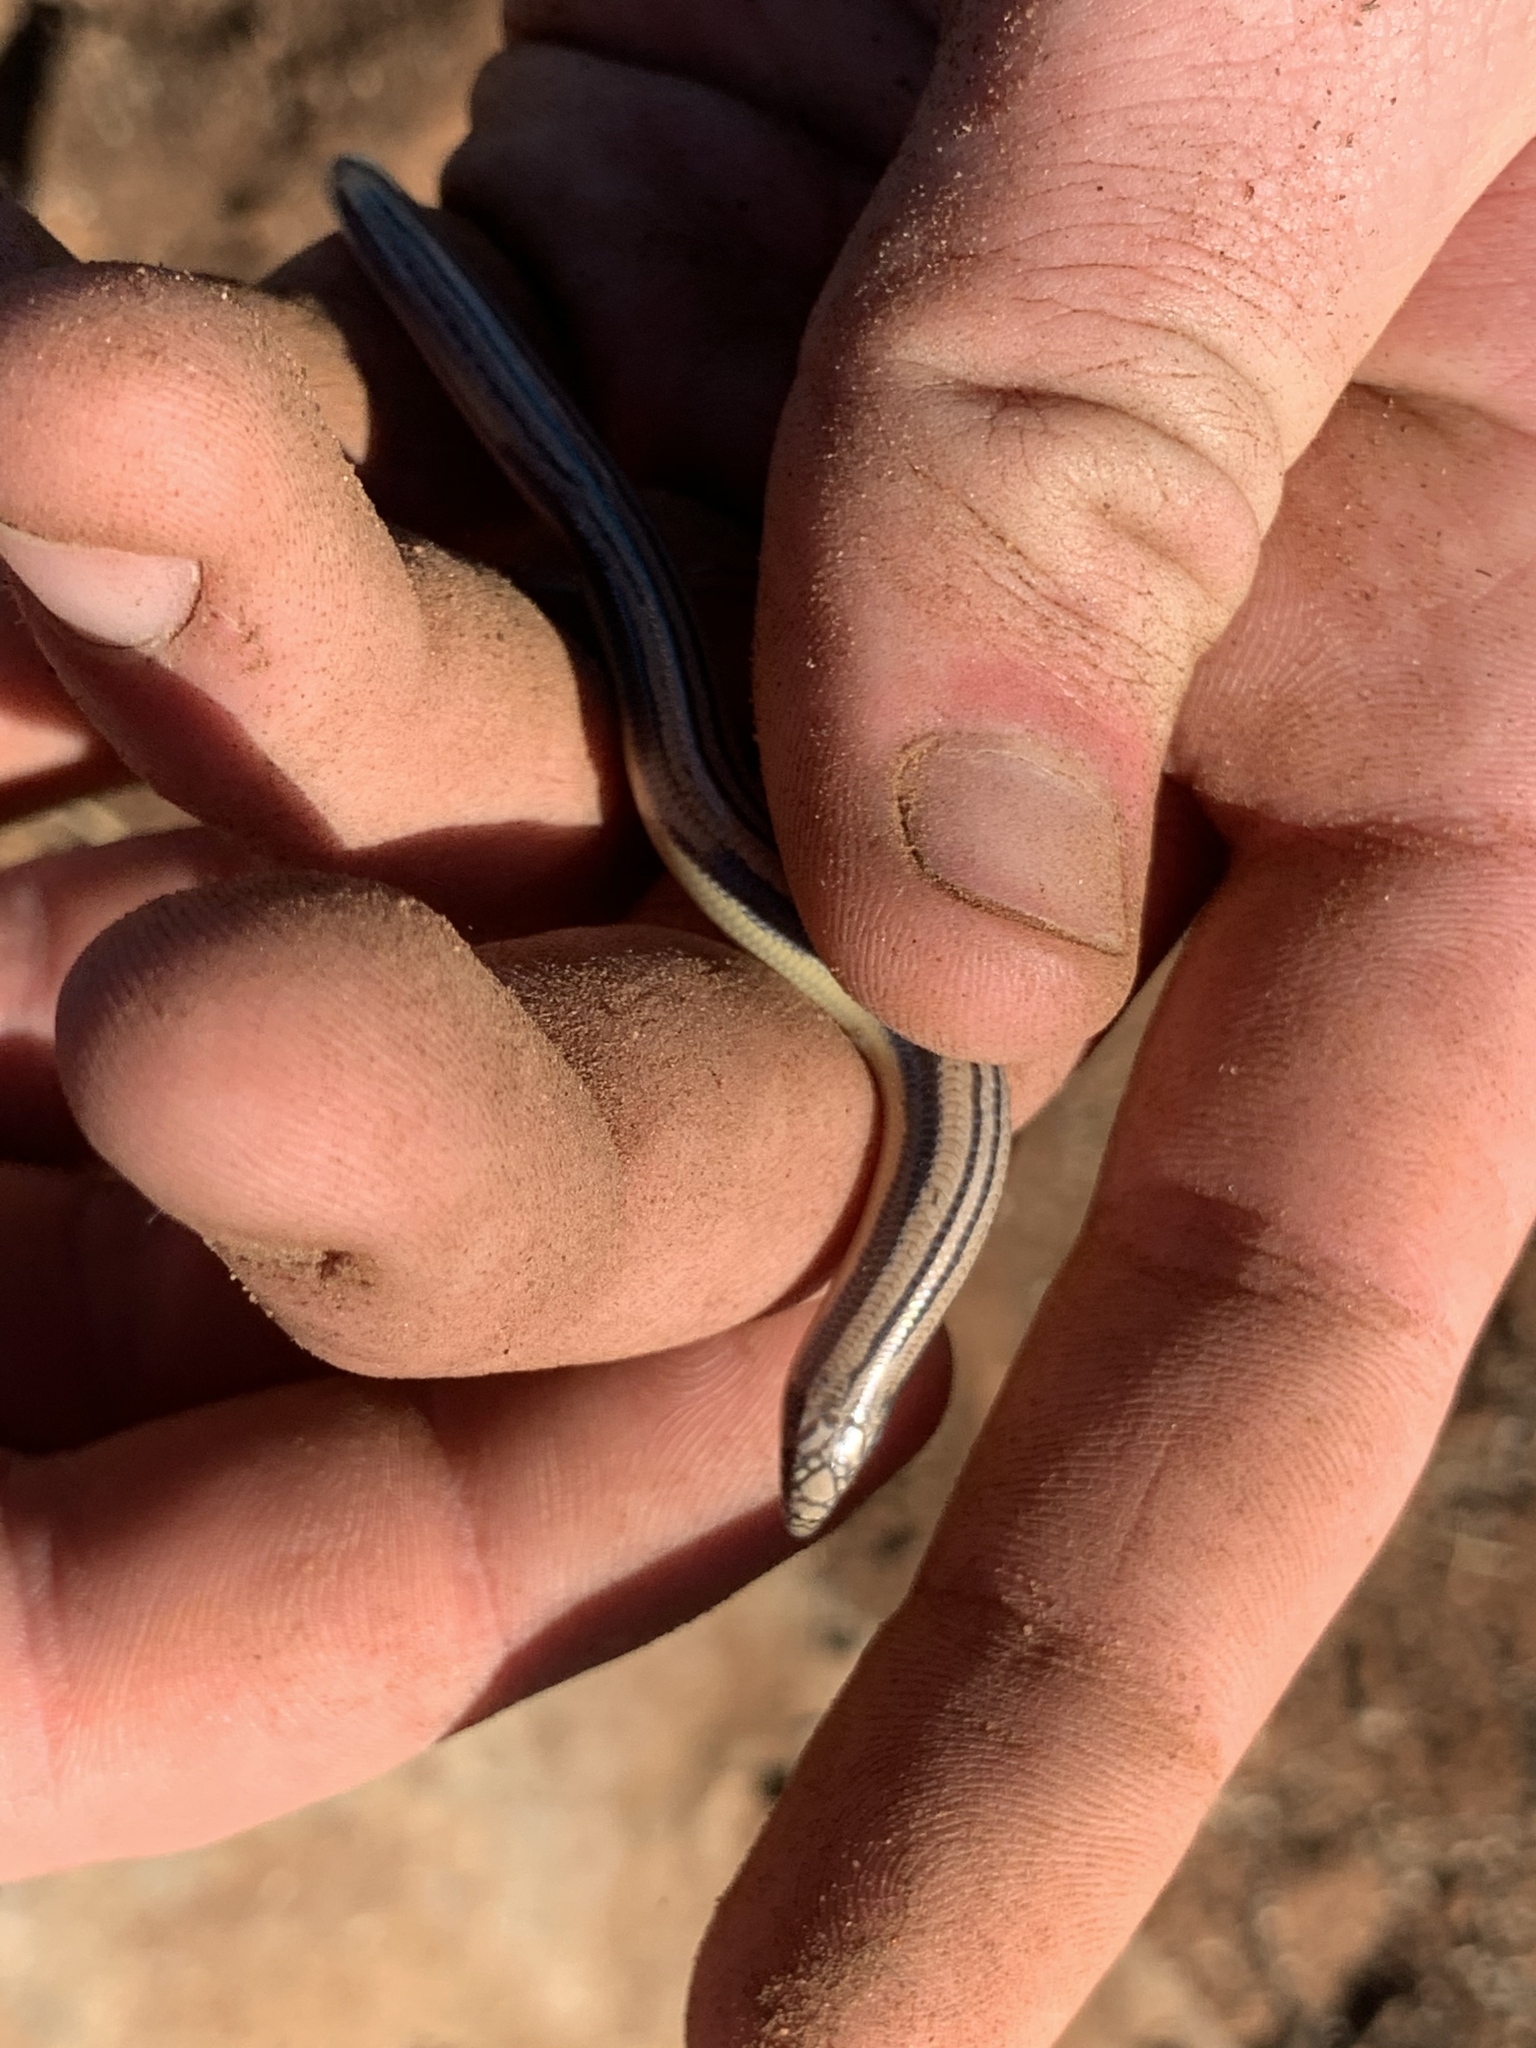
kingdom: Animalia
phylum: Chordata
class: Squamata
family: Scincidae
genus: Lerista
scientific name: Lerista edwardsae
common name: Myall slider
